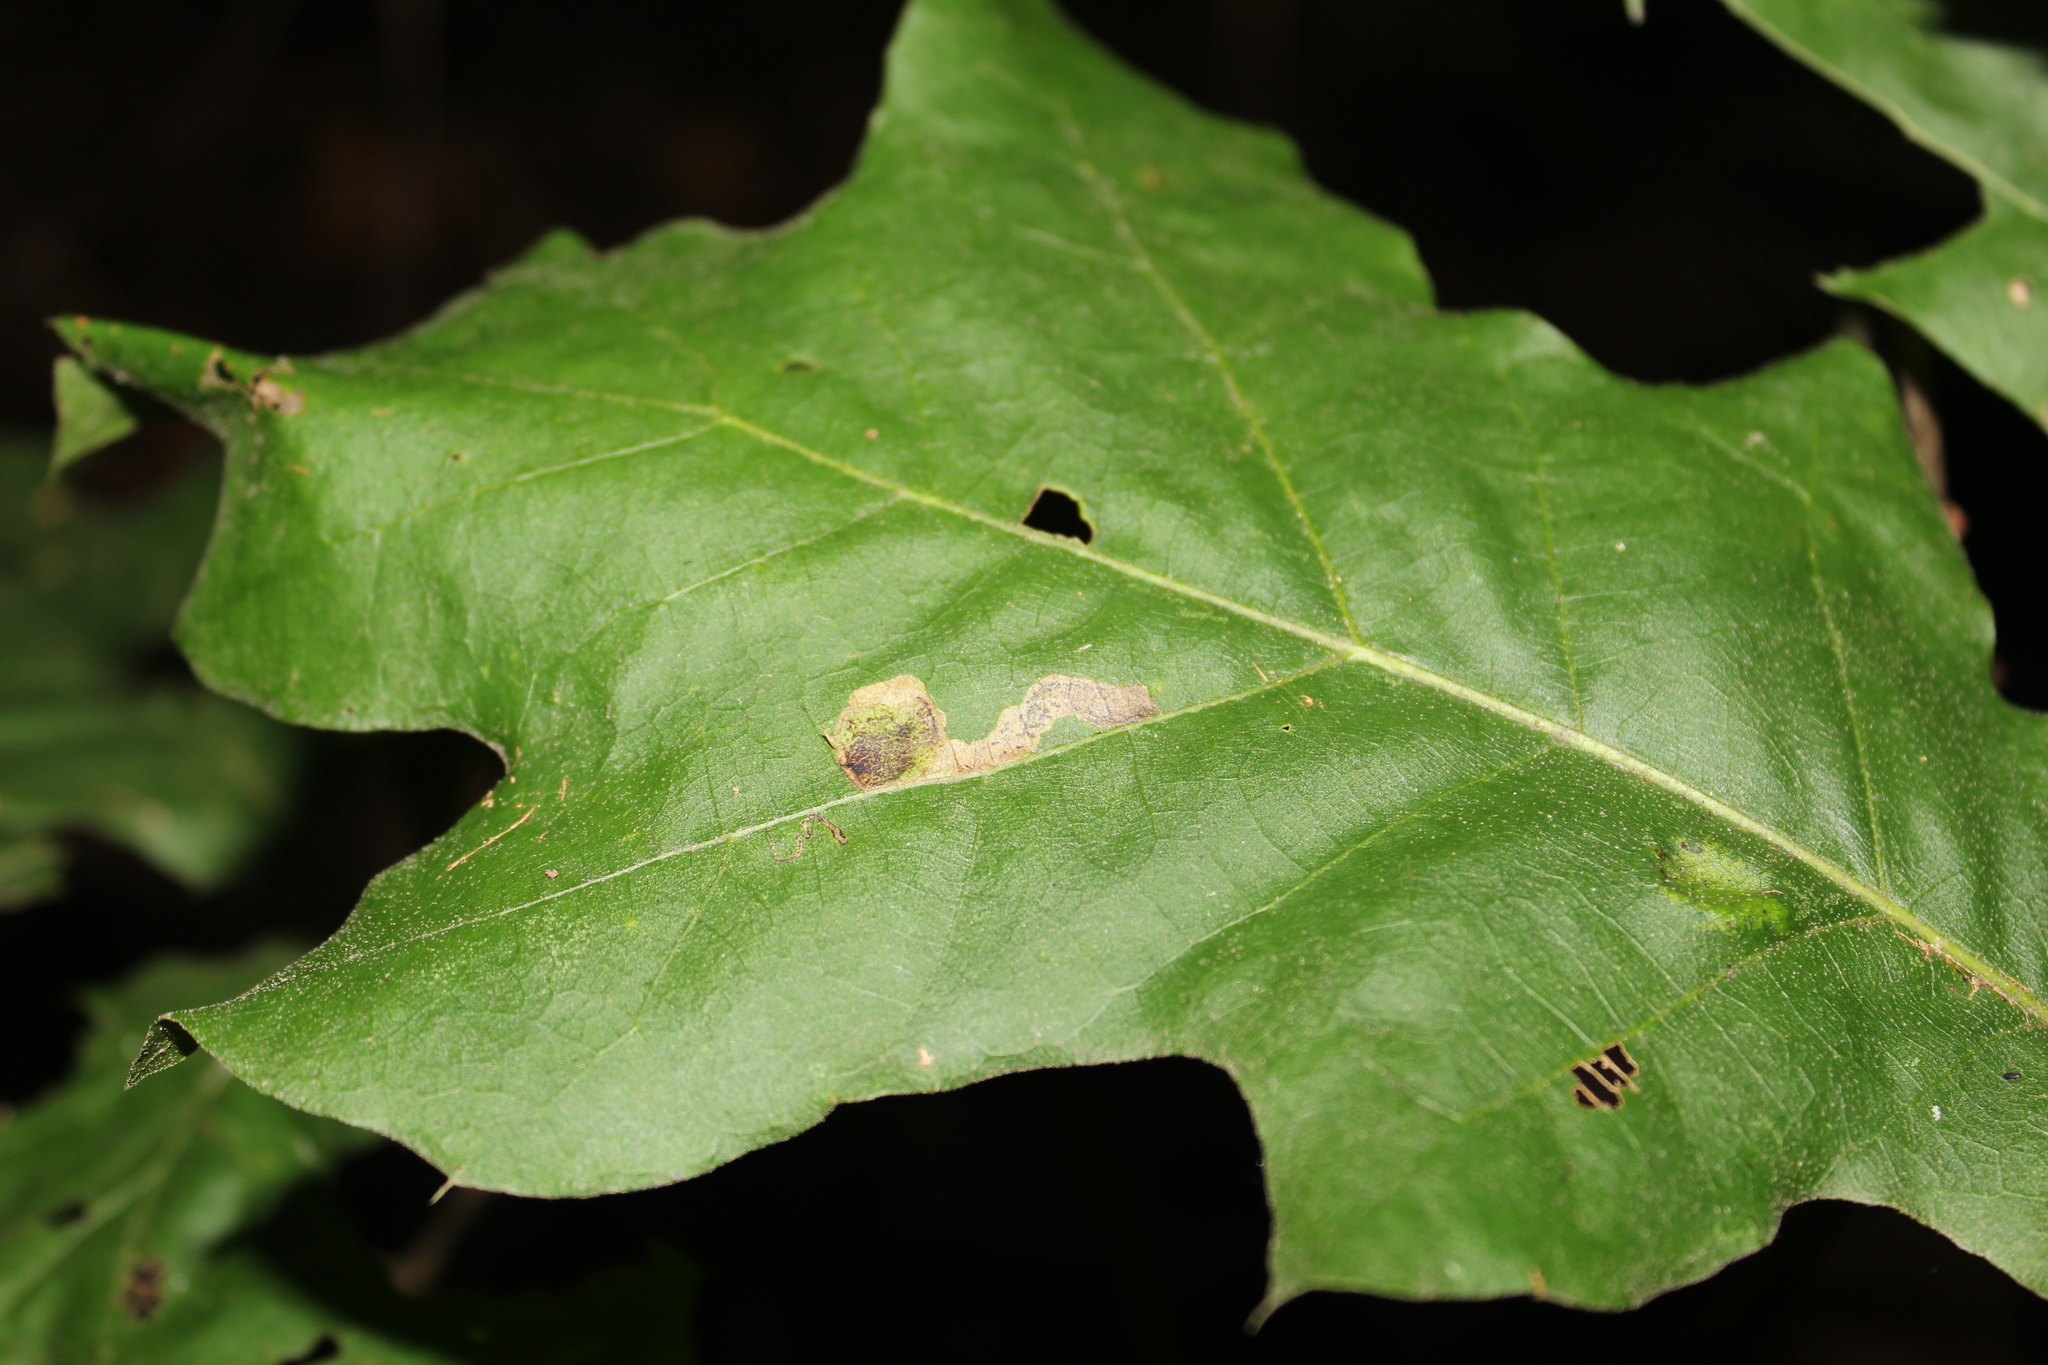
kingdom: Animalia
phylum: Arthropoda
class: Insecta
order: Lepidoptera
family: Gracillariidae
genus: Cameraria
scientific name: Cameraria
